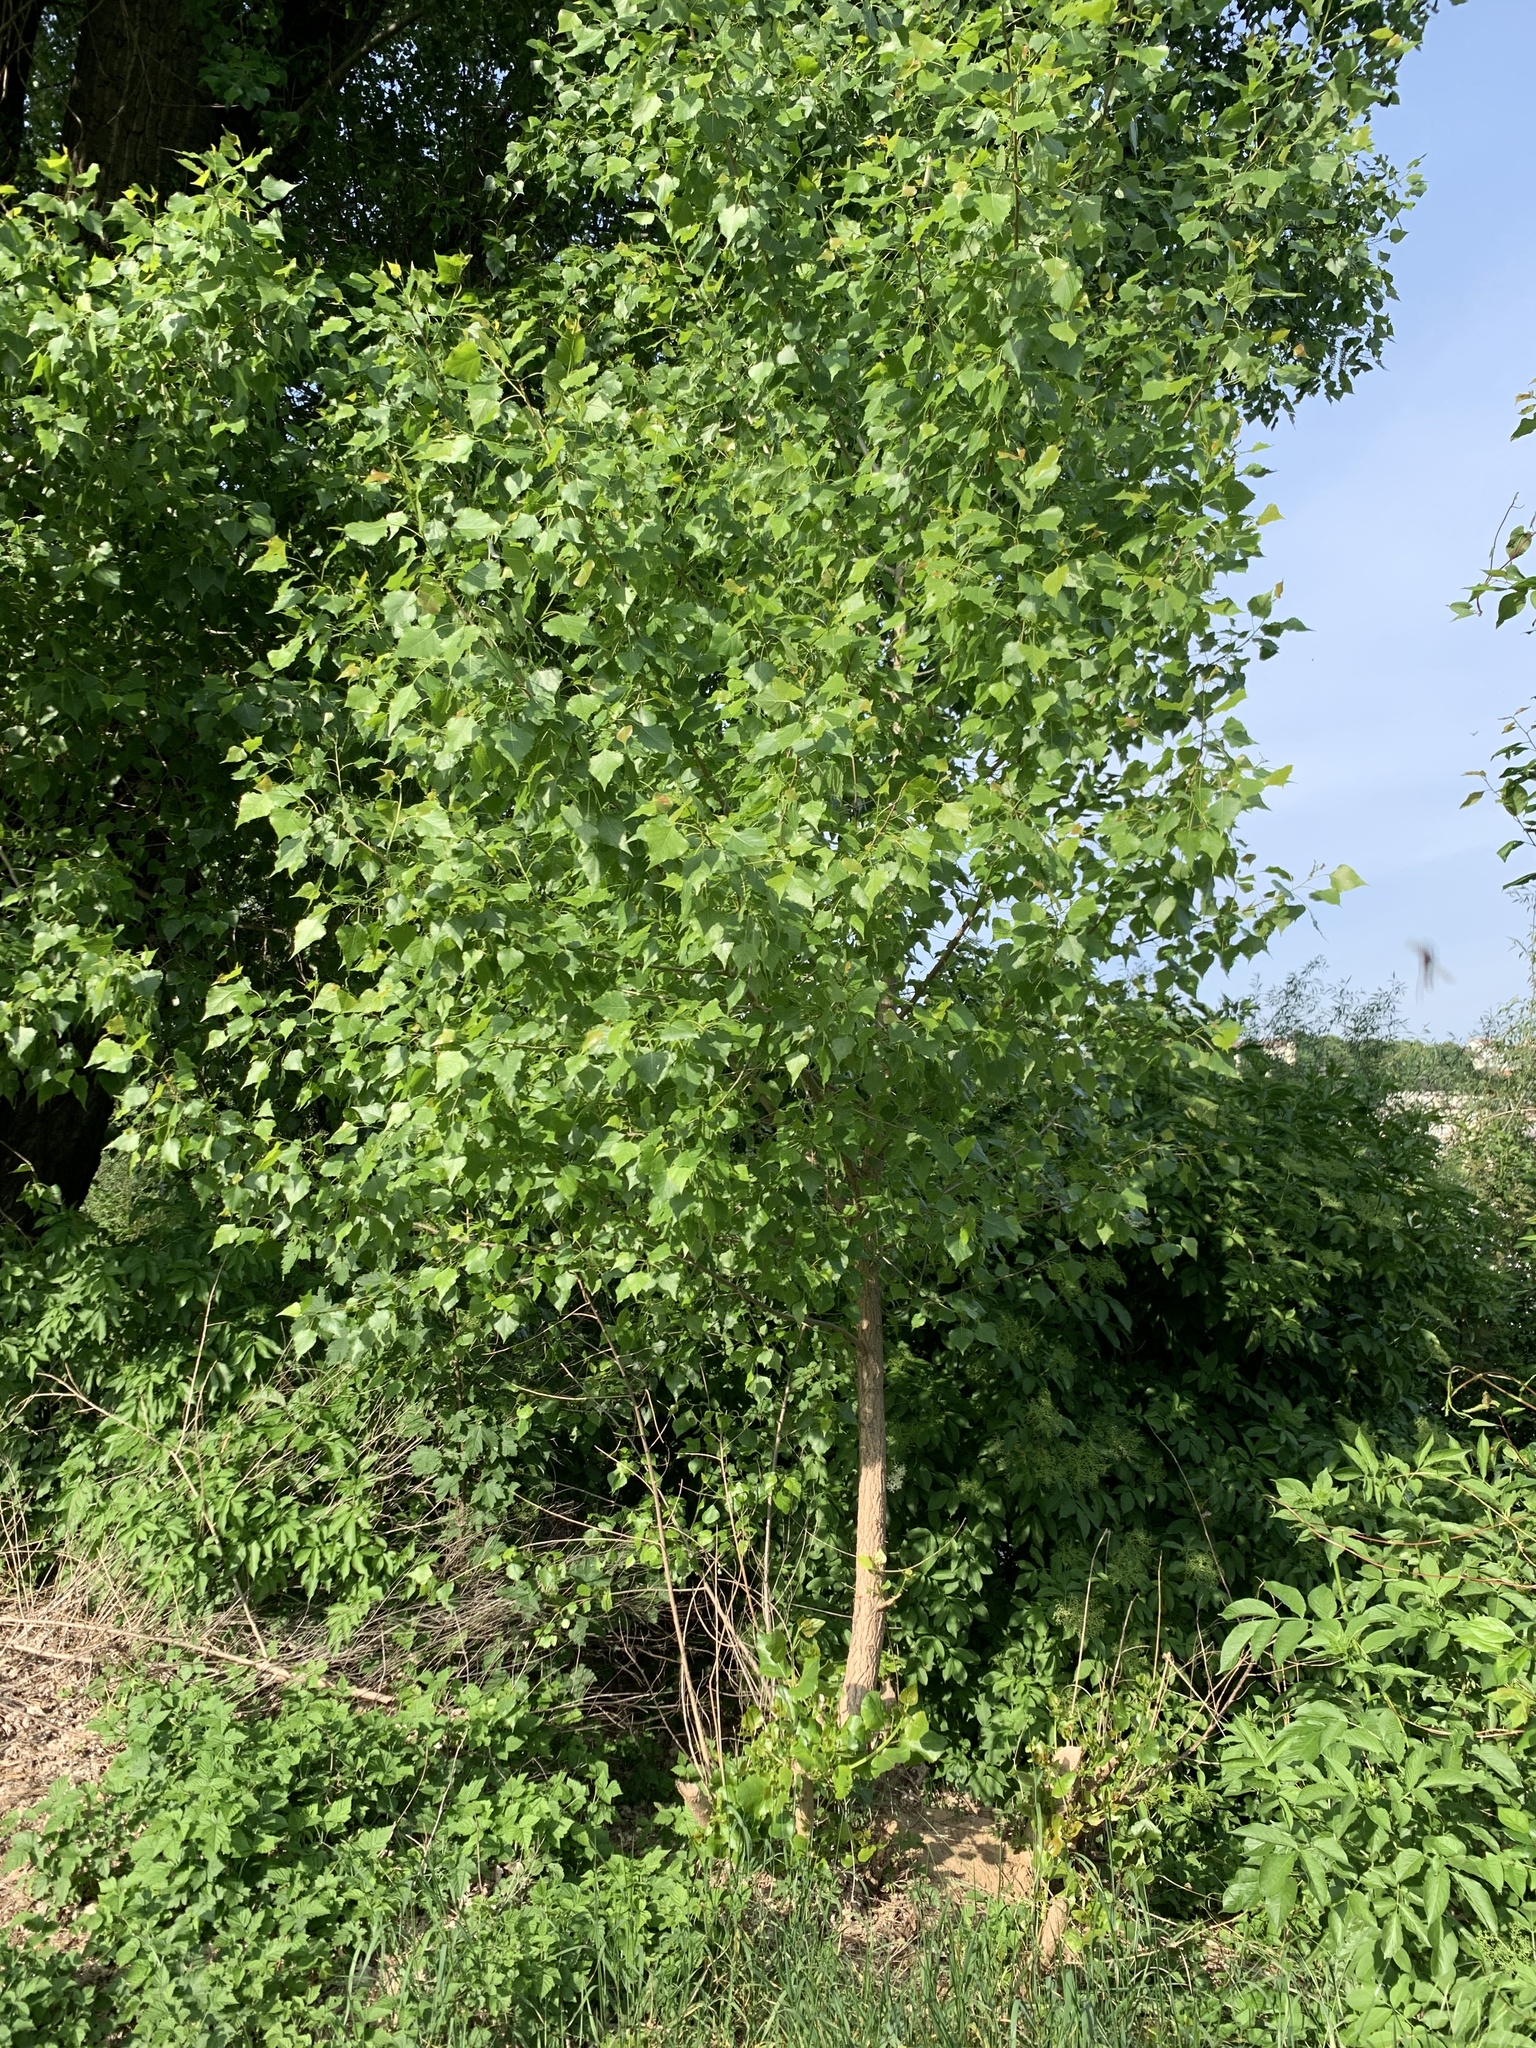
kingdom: Plantae
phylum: Tracheophyta
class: Magnoliopsida
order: Malpighiales
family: Salicaceae
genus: Populus
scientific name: Populus nigra
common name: Black poplar
